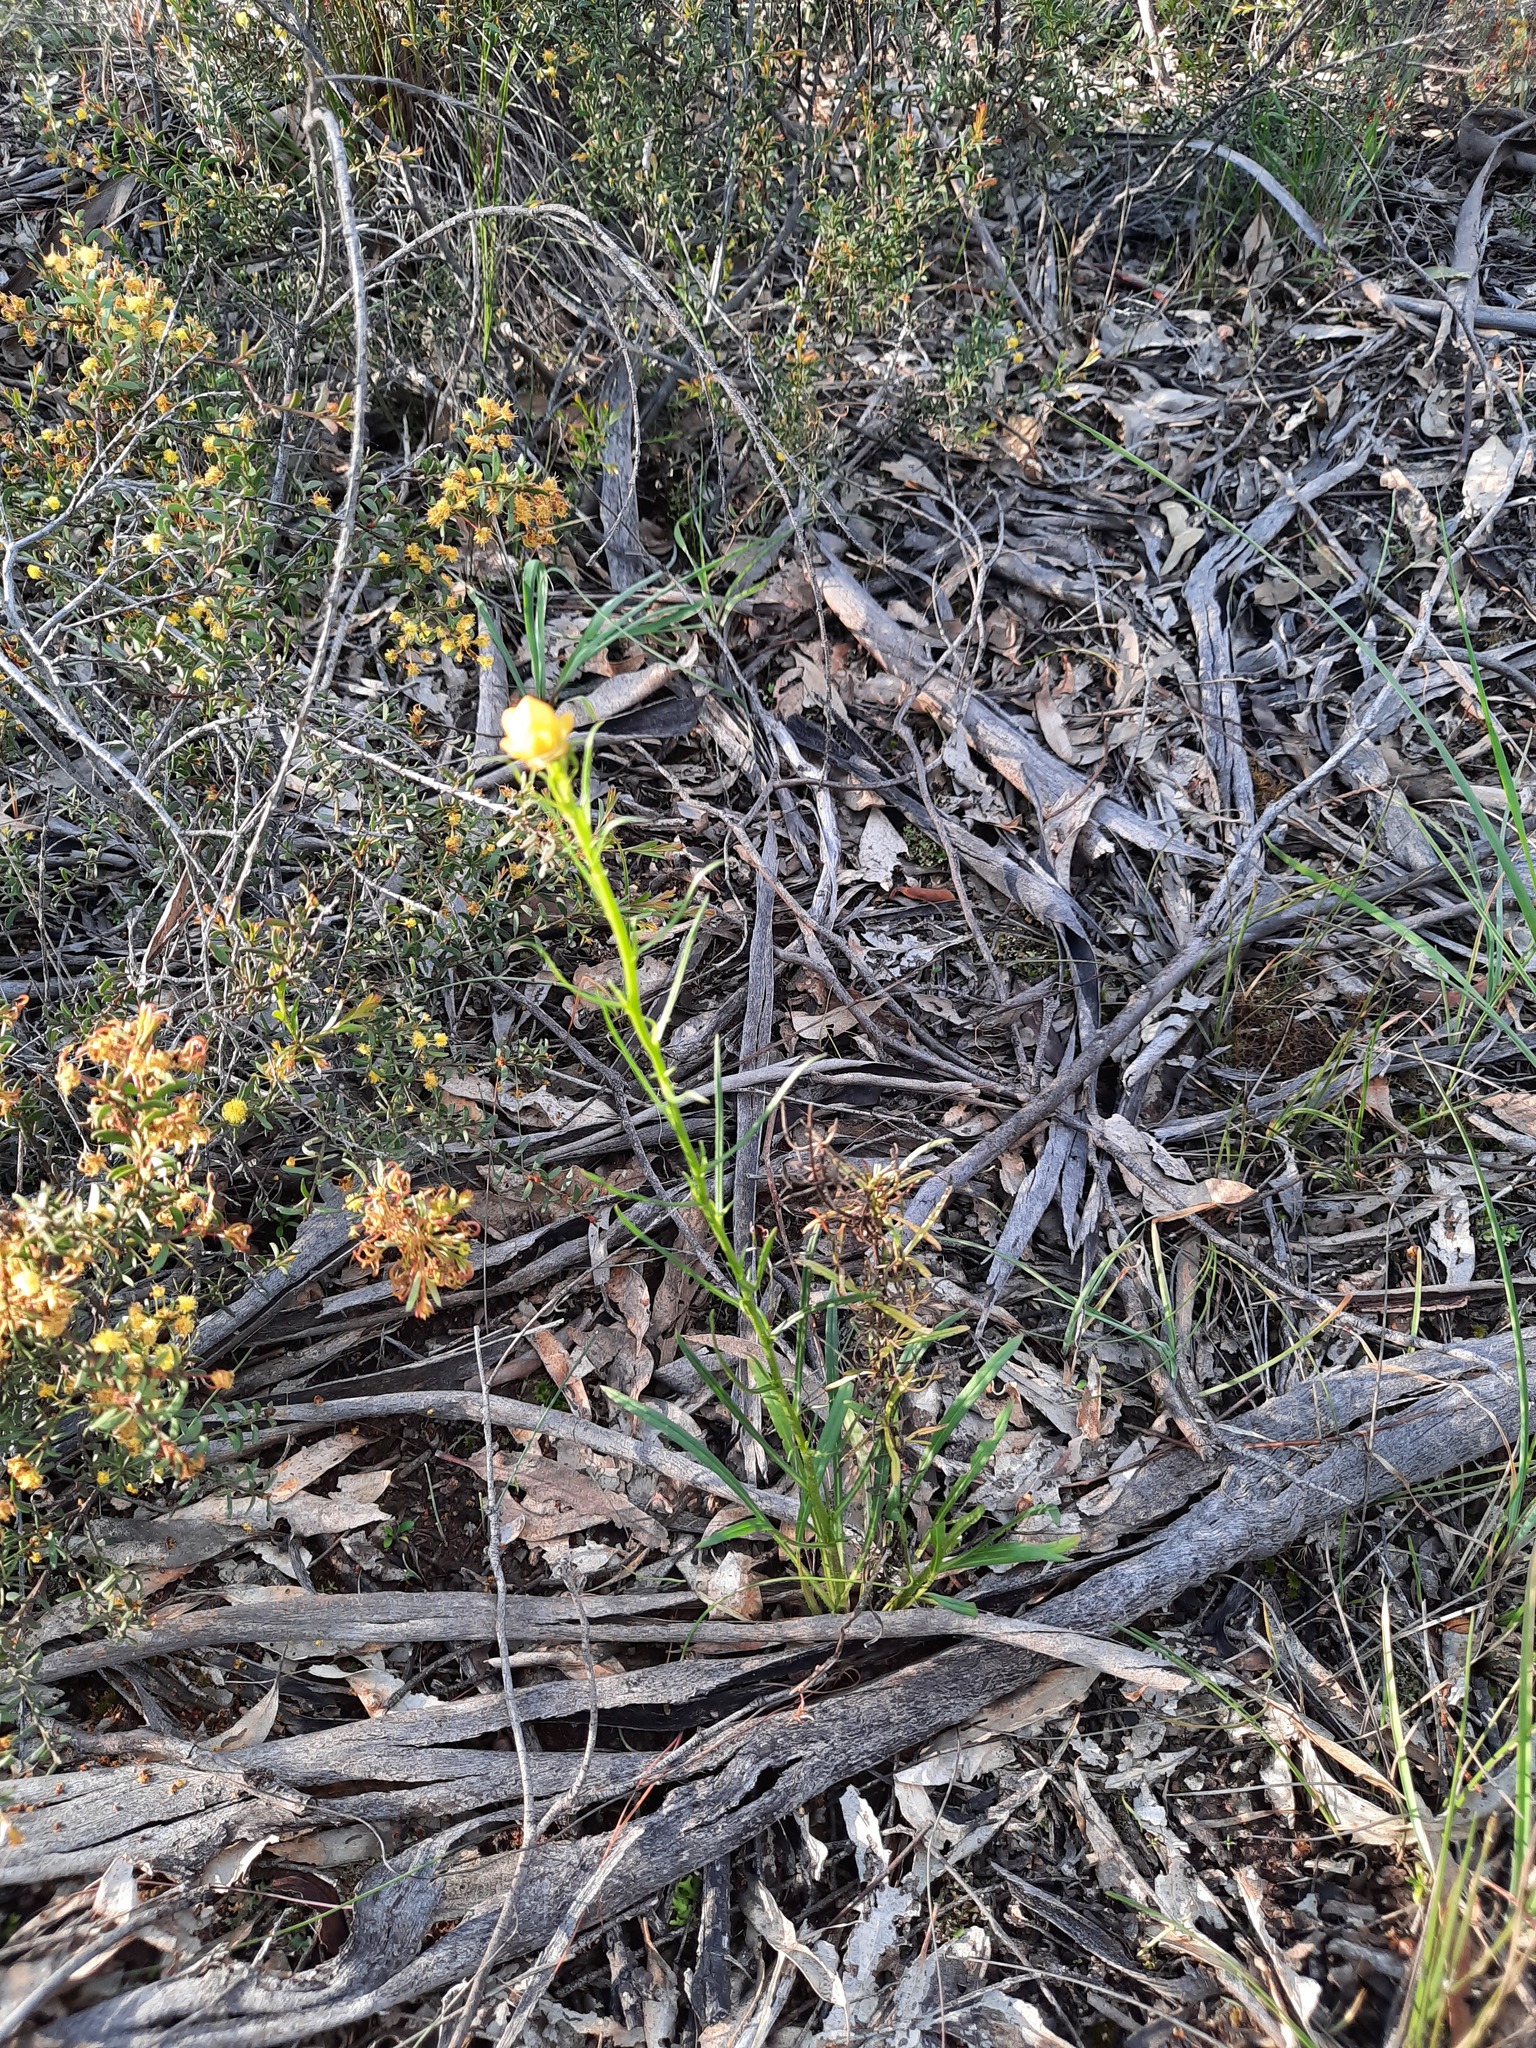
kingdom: Plantae
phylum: Tracheophyta
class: Magnoliopsida
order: Asterales
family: Asteraceae
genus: Xerochrysum
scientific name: Xerochrysum viscosum
